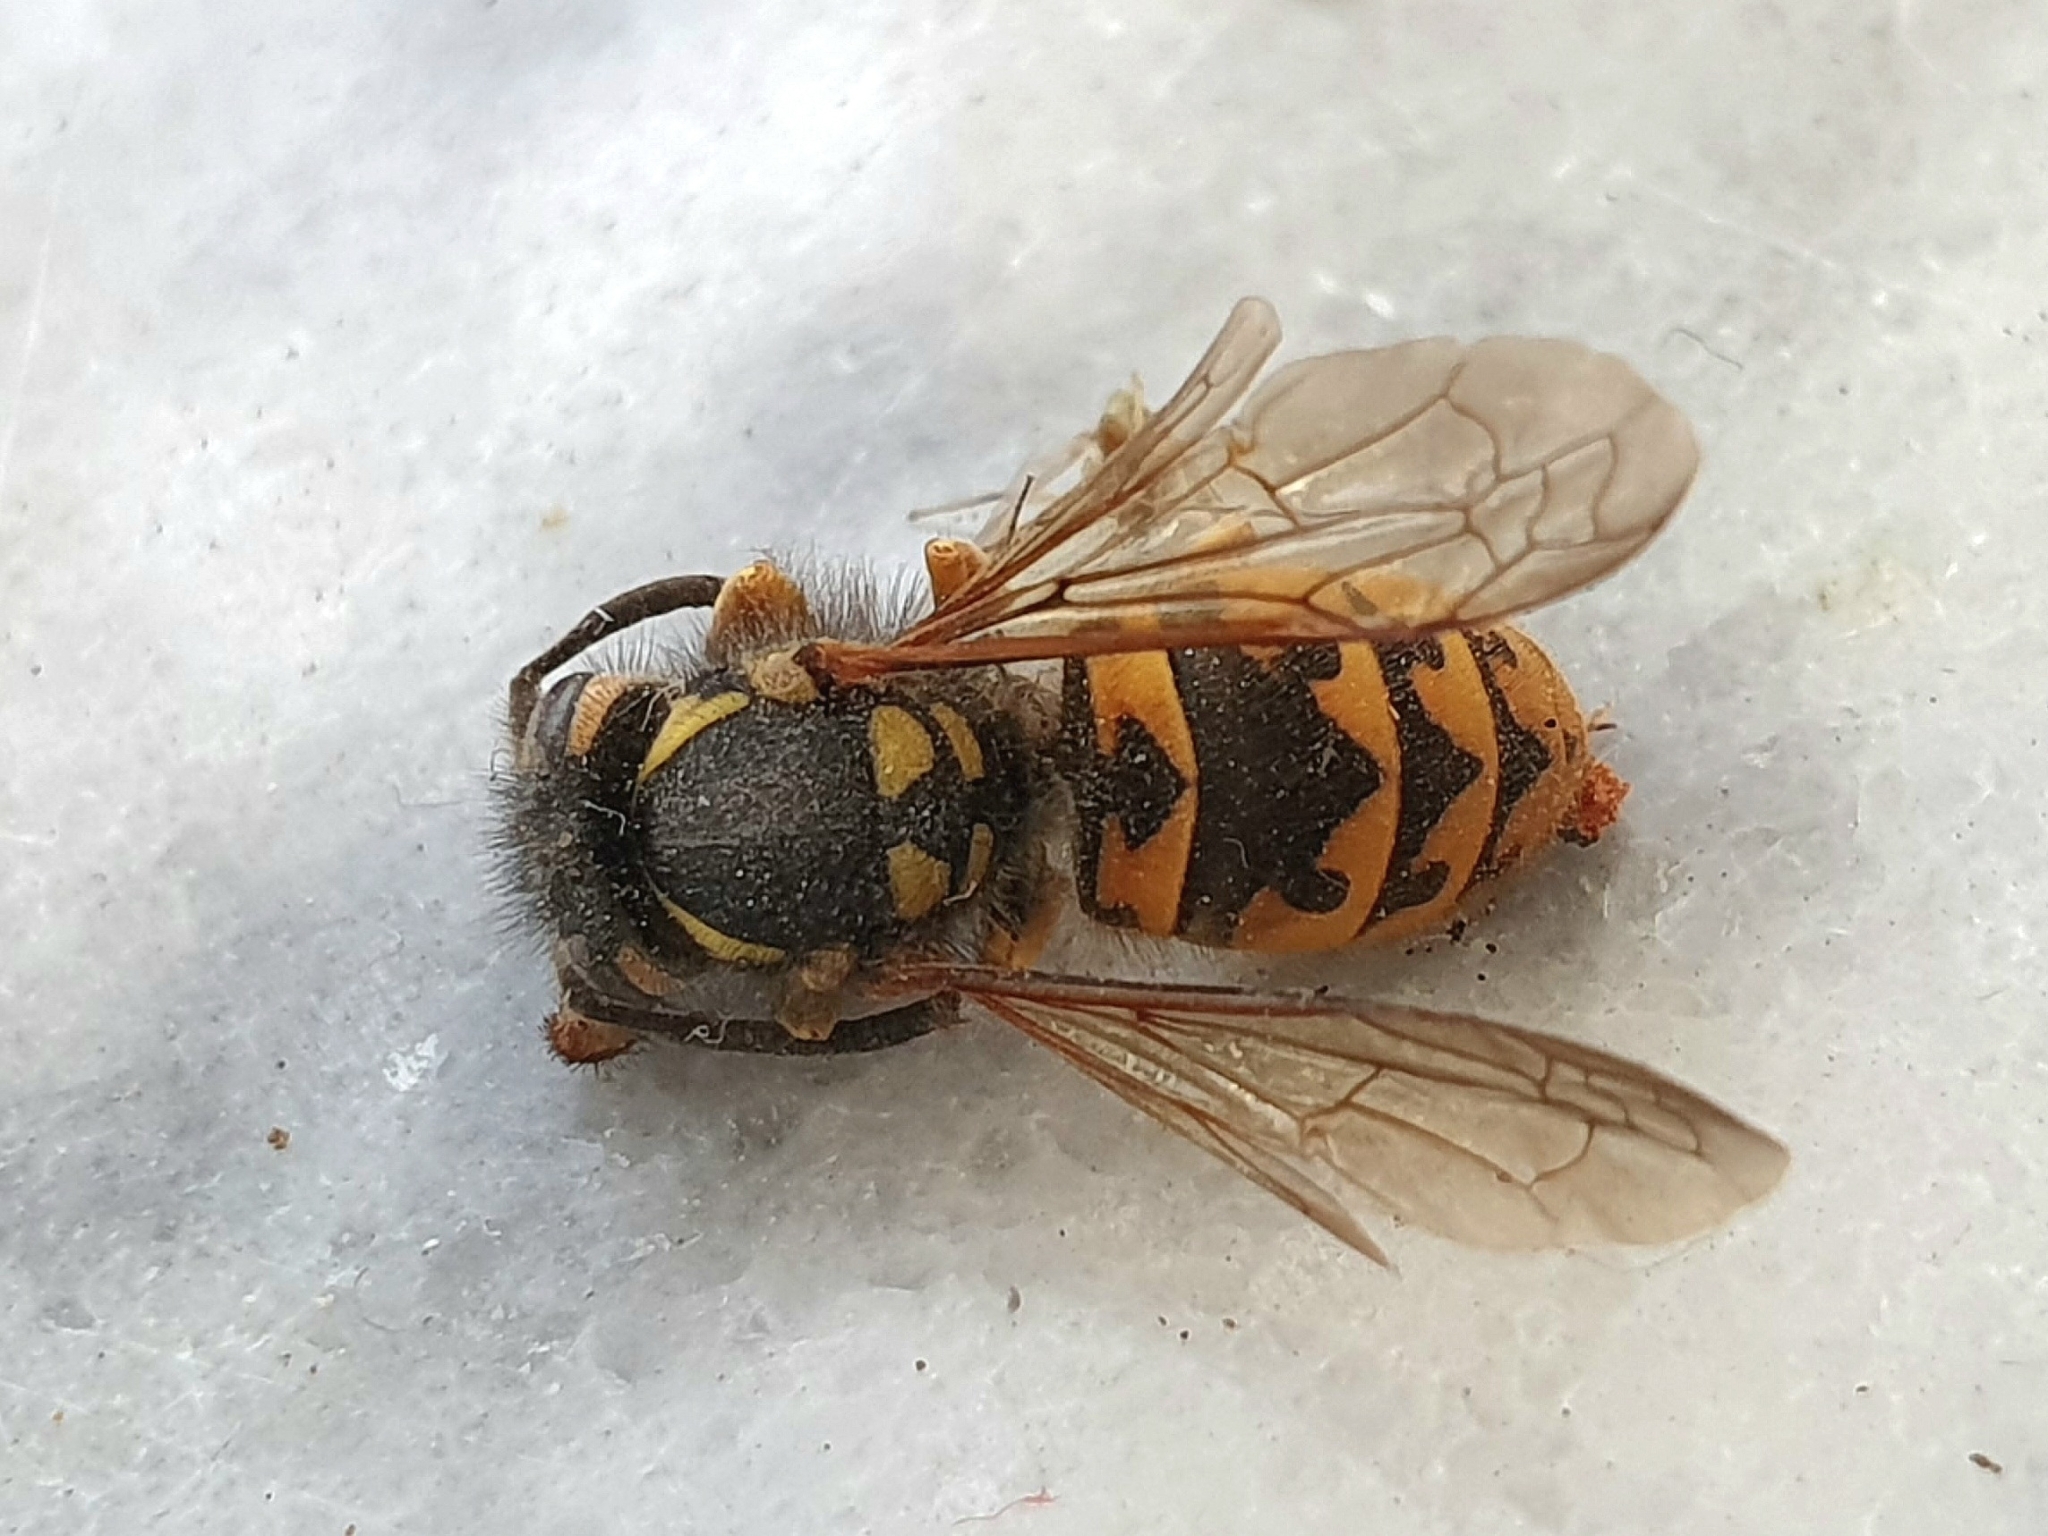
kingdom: Animalia
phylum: Arthropoda
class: Insecta
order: Hymenoptera
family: Vespidae
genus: Vespula
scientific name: Vespula germanica
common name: German wasp
